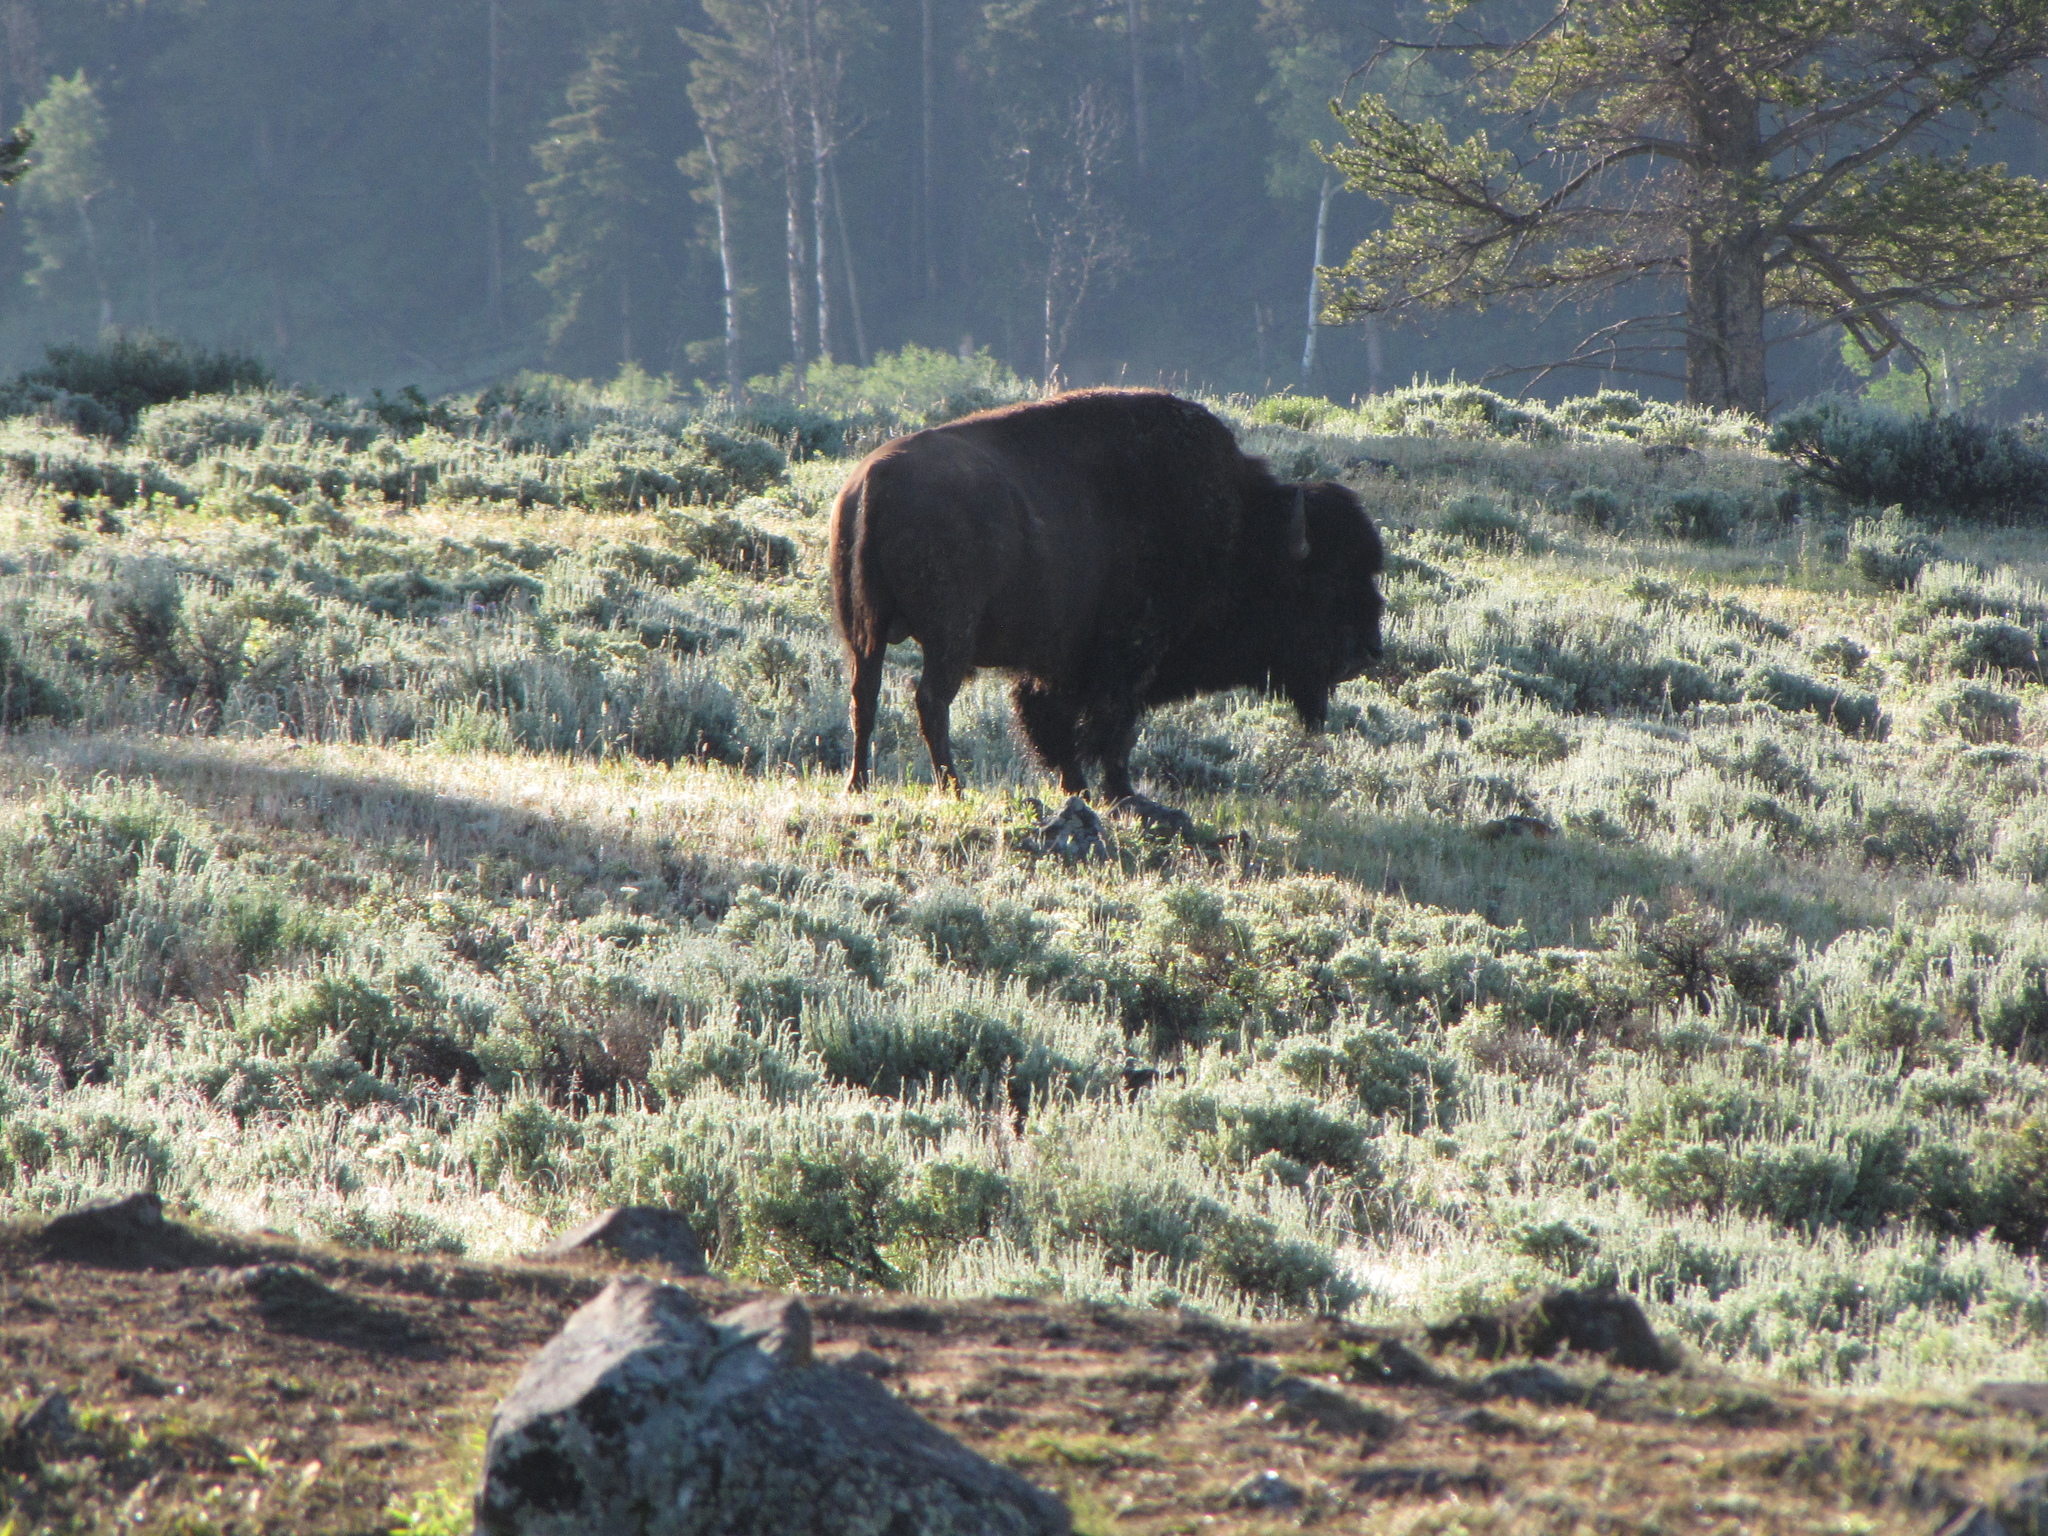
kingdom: Animalia
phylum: Chordata
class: Mammalia
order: Artiodactyla
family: Bovidae
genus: Bison
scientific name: Bison bison
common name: American bison
